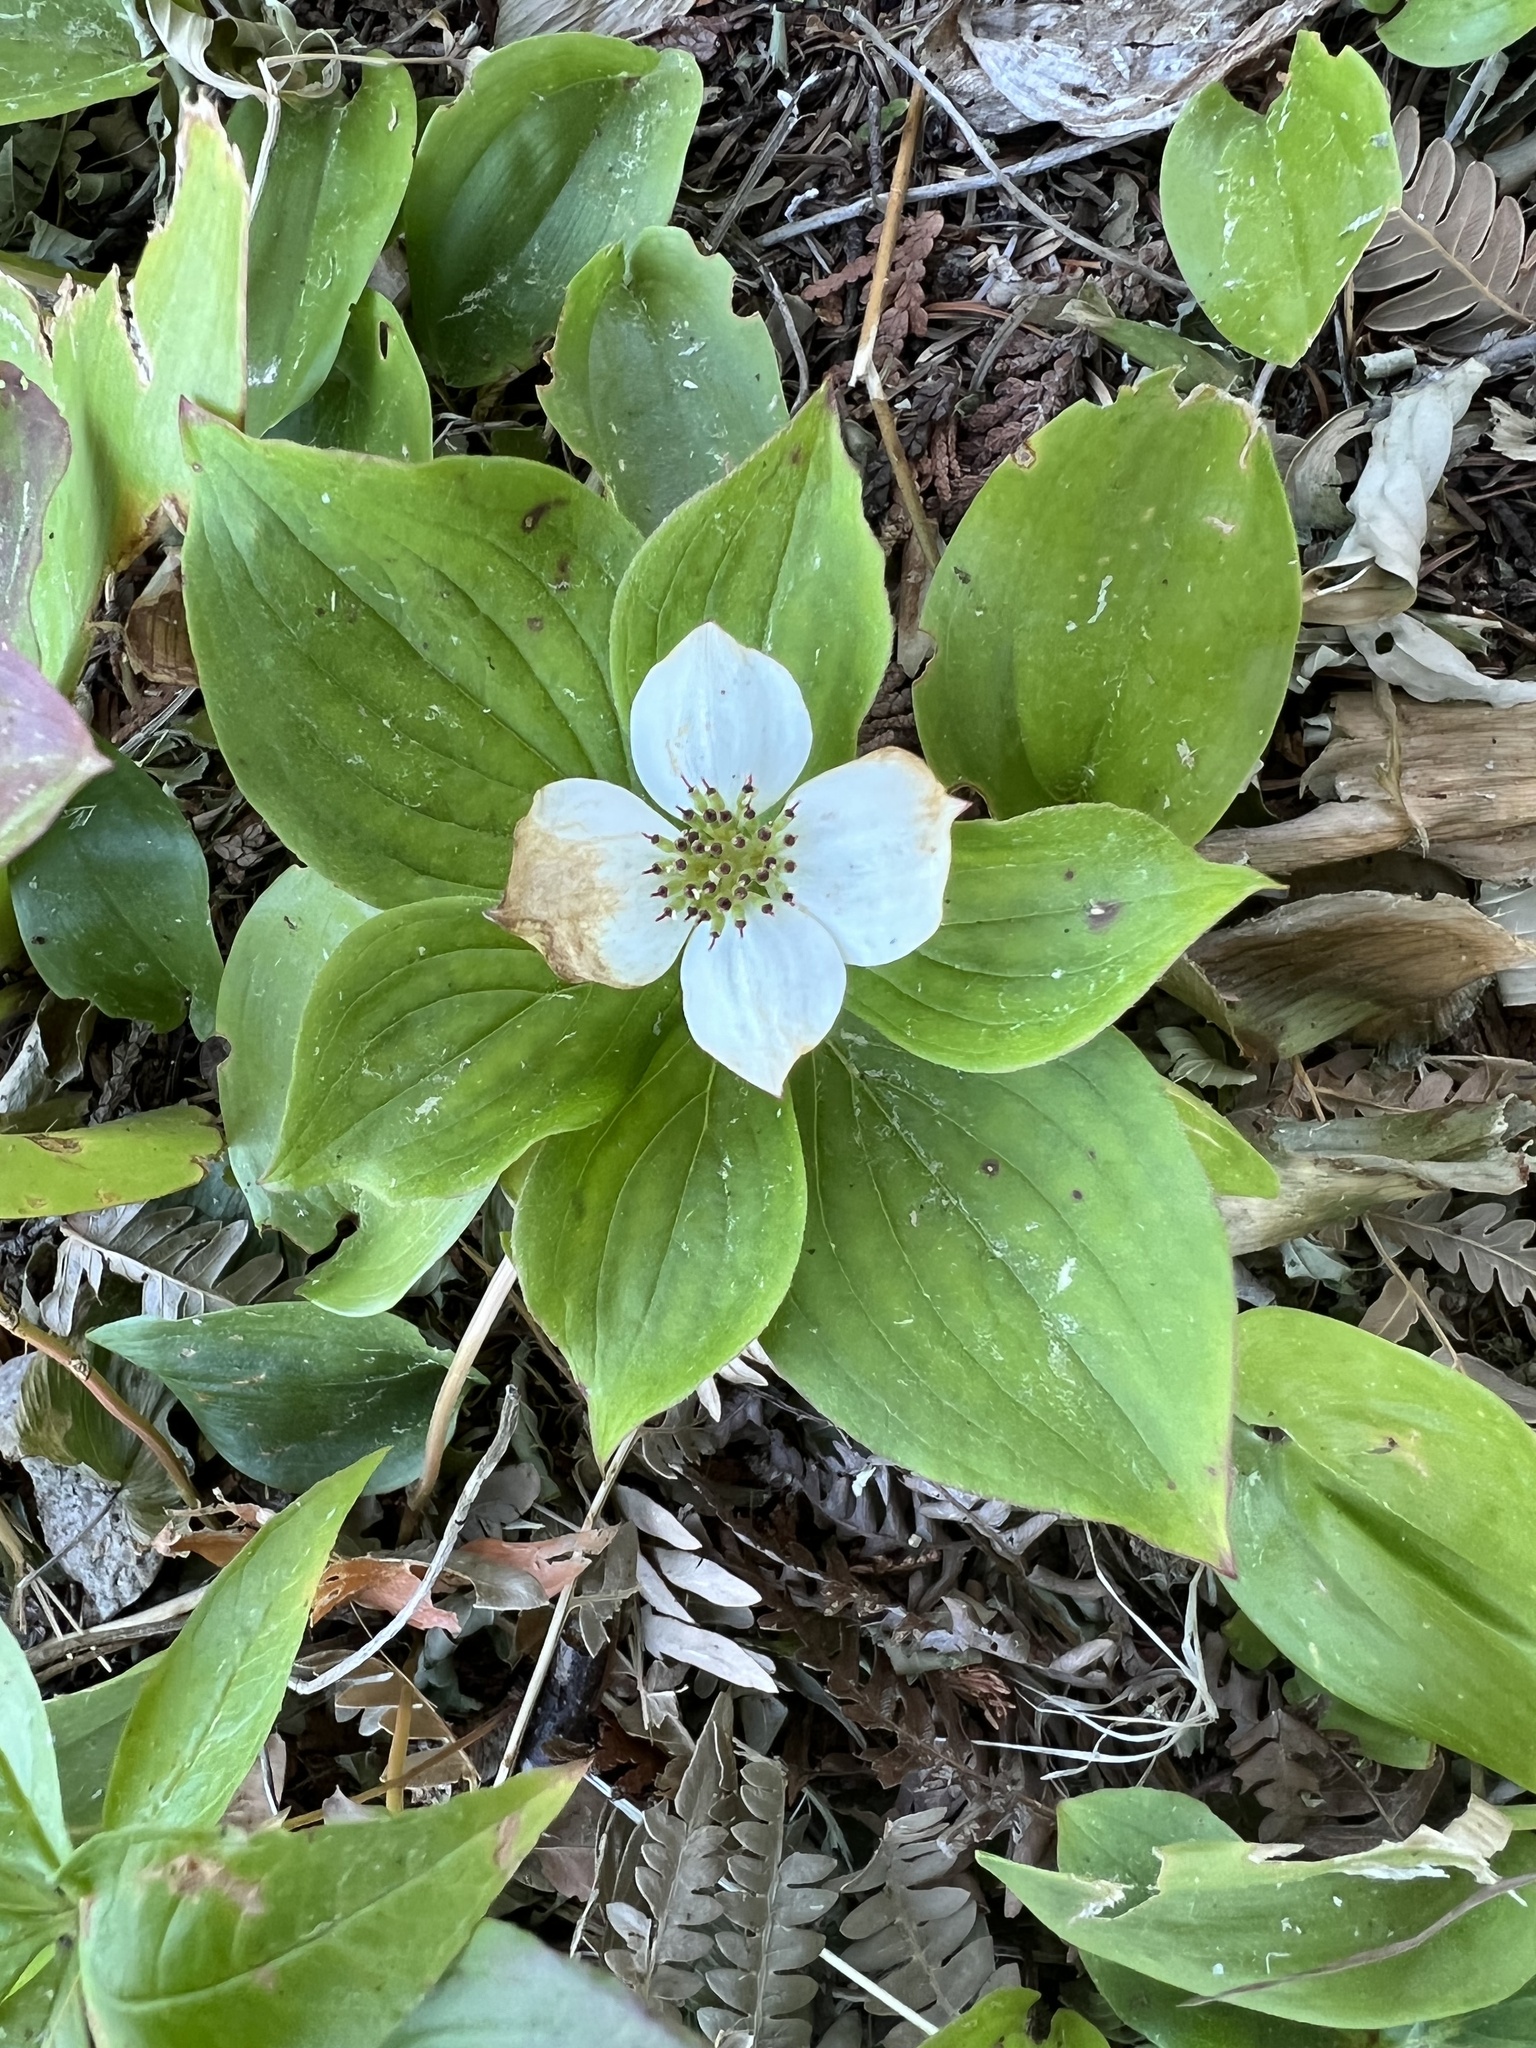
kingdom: Plantae
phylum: Tracheophyta
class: Magnoliopsida
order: Cornales
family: Cornaceae
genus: Cornus
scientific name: Cornus canadensis
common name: Creeping dogwood
